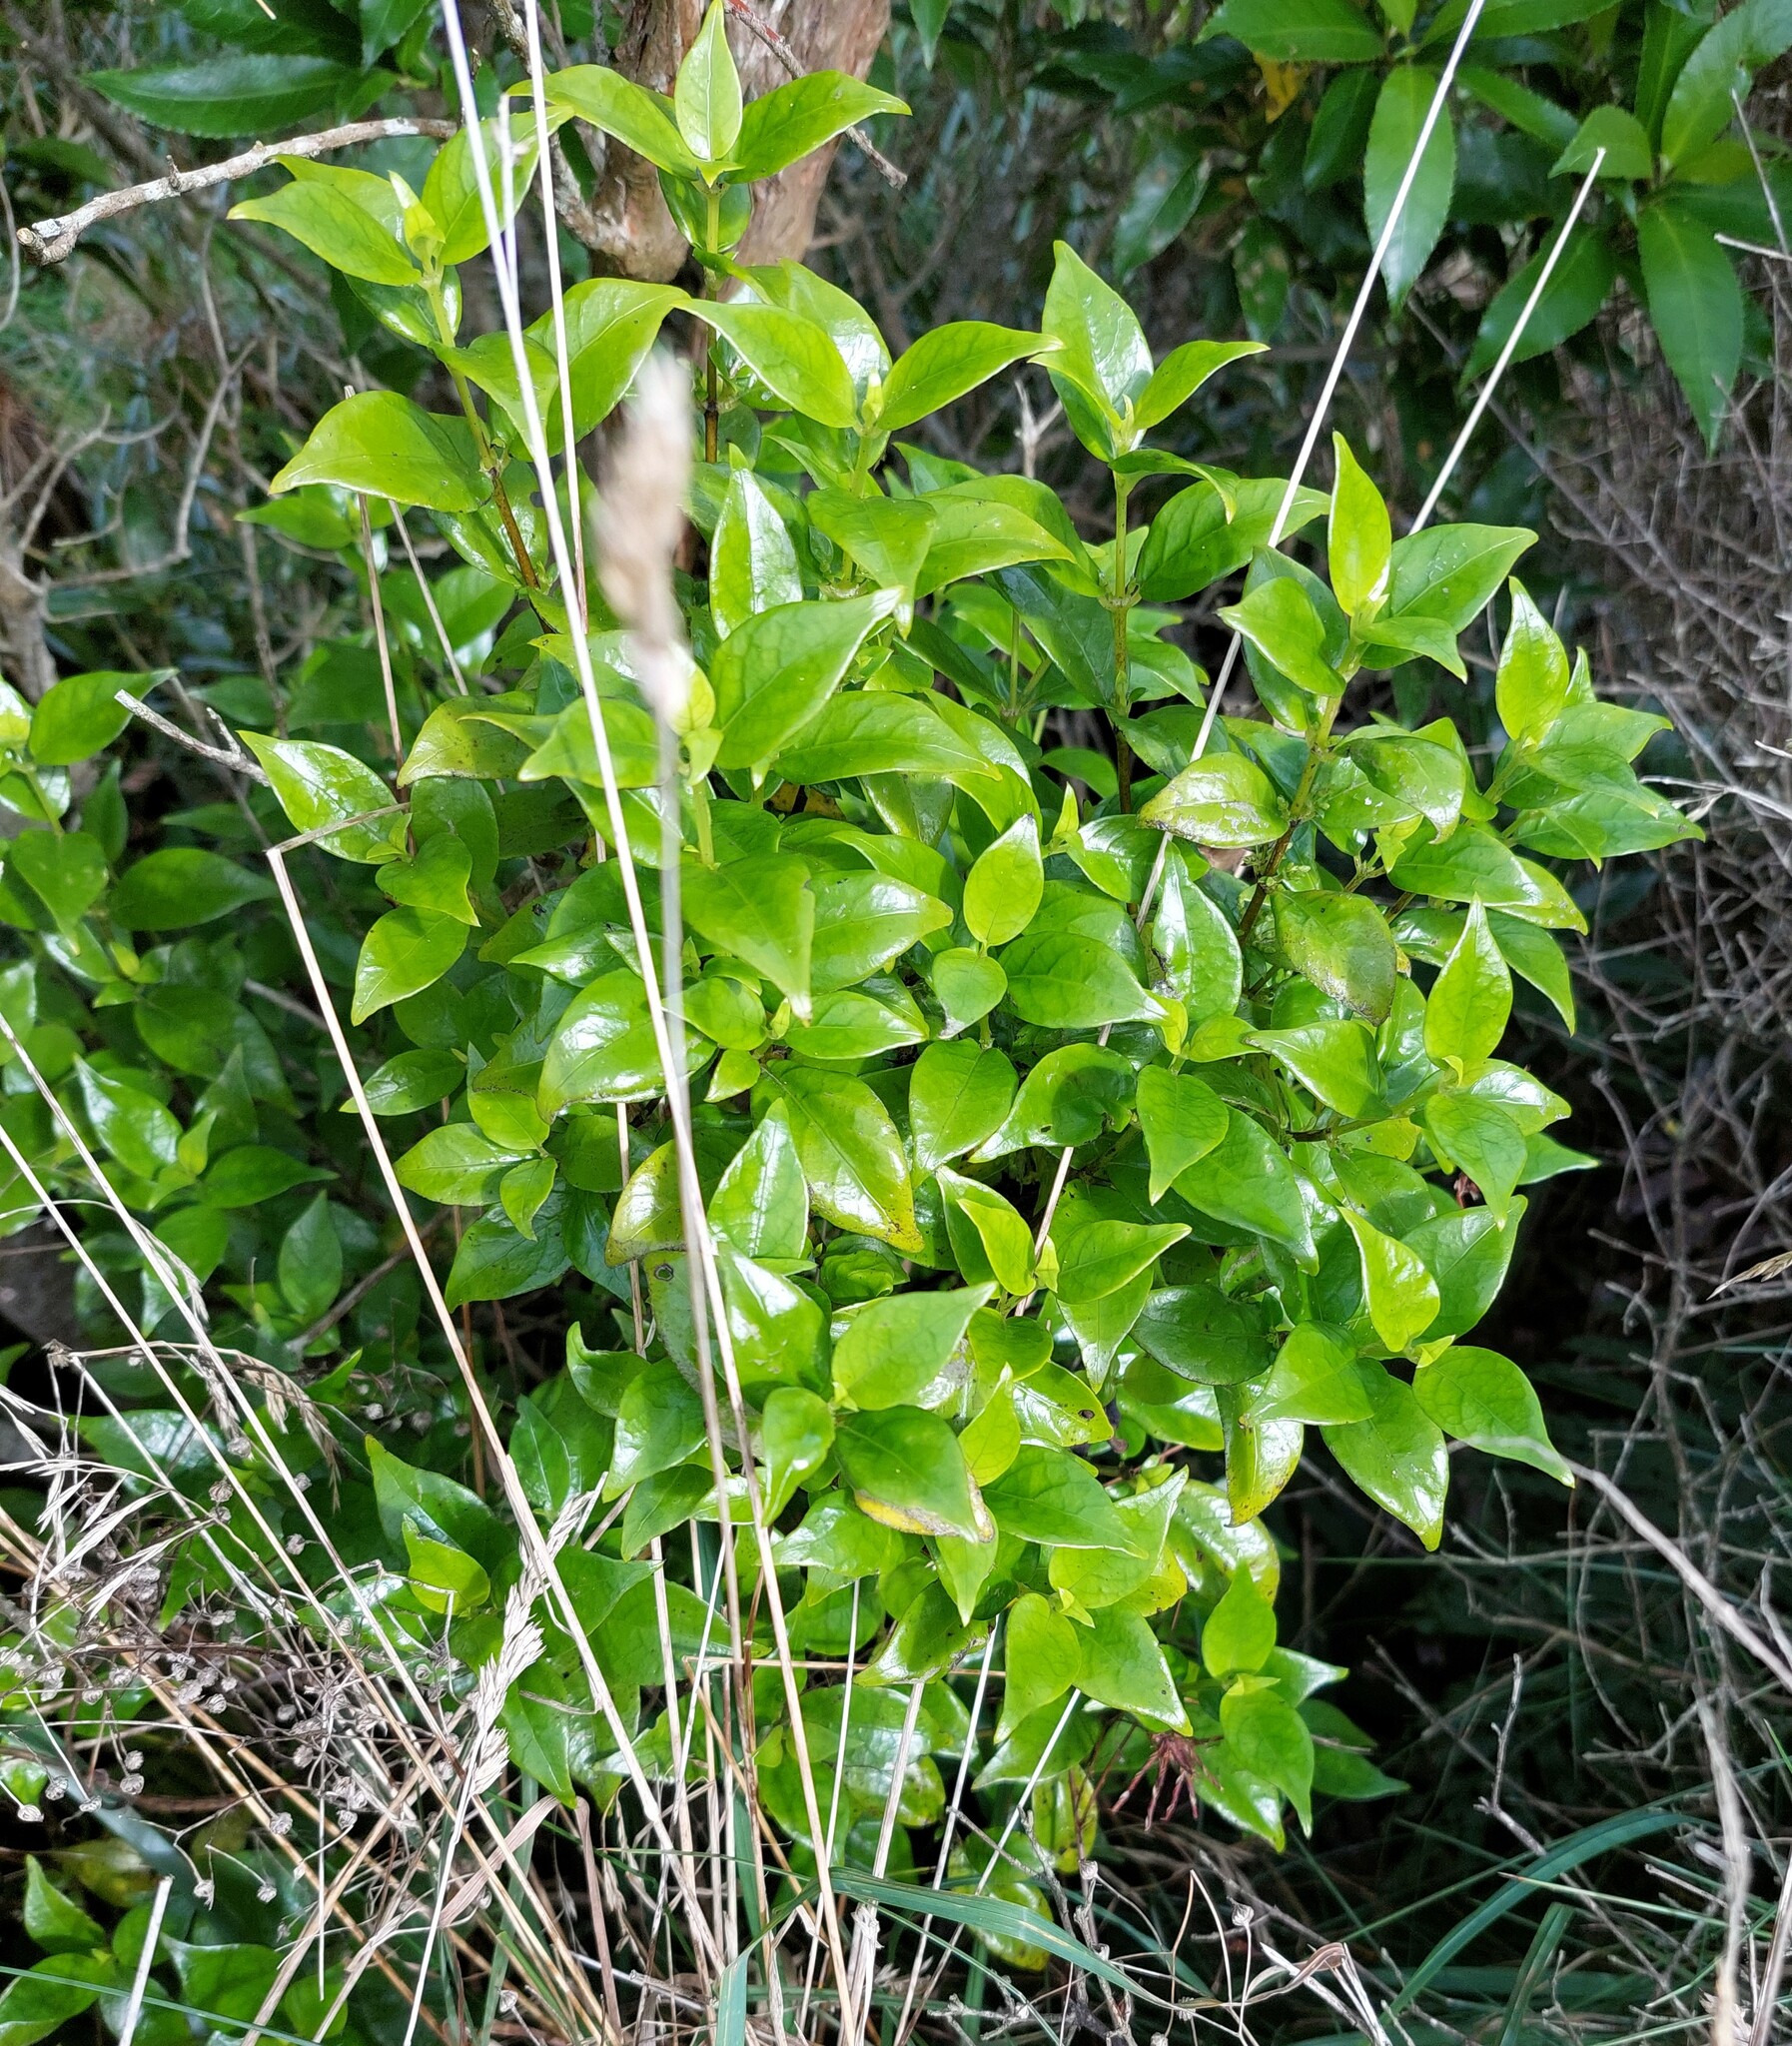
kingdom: Plantae
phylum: Tracheophyta
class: Magnoliopsida
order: Gentianales
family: Loganiaceae
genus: Geniostoma
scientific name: Geniostoma ligustrifolium
